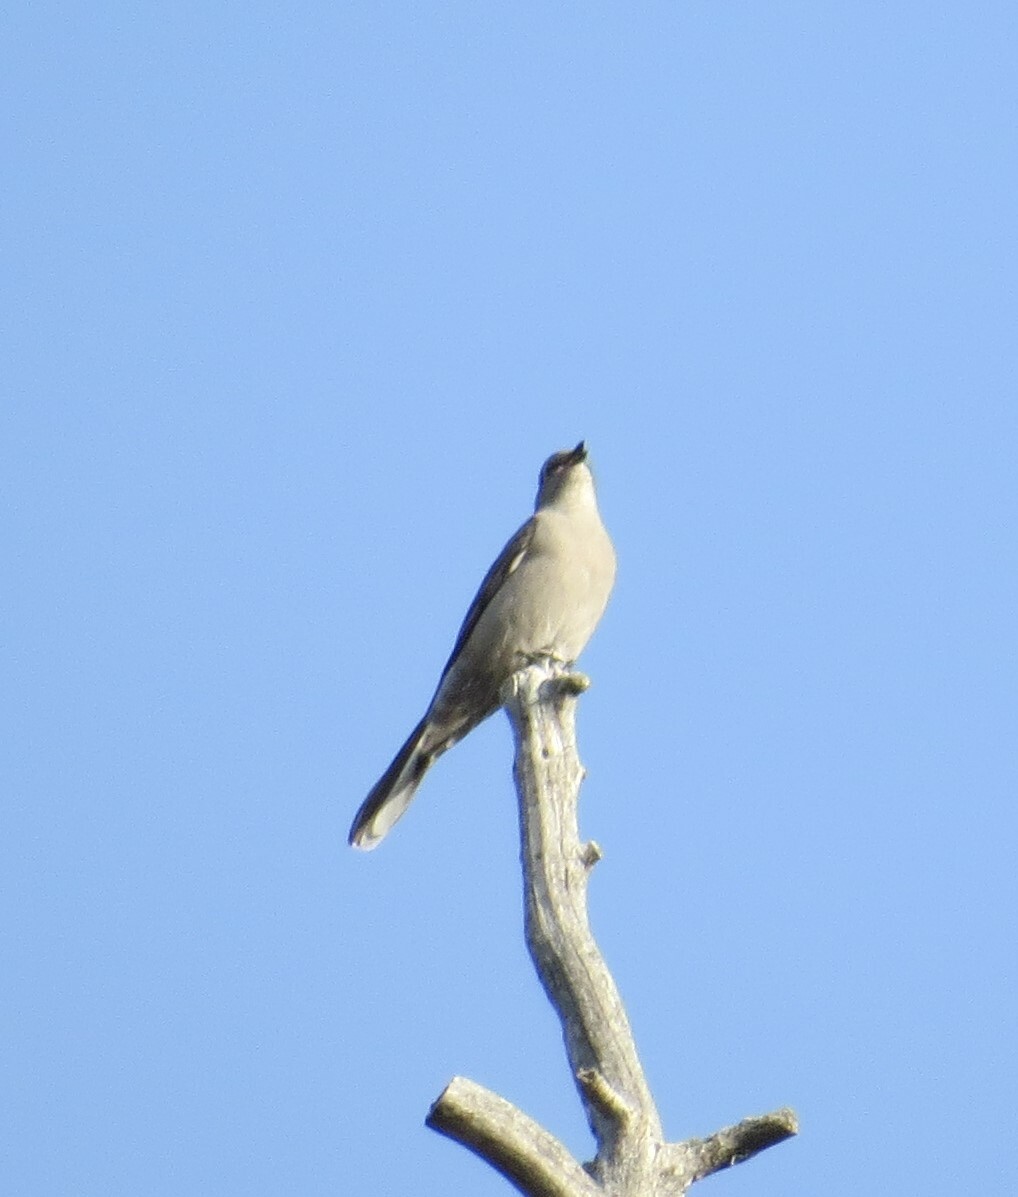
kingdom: Animalia
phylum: Chordata
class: Aves
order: Passeriformes
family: Turdidae
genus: Myadestes
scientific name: Myadestes townsendi
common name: Townsend's solitaire
